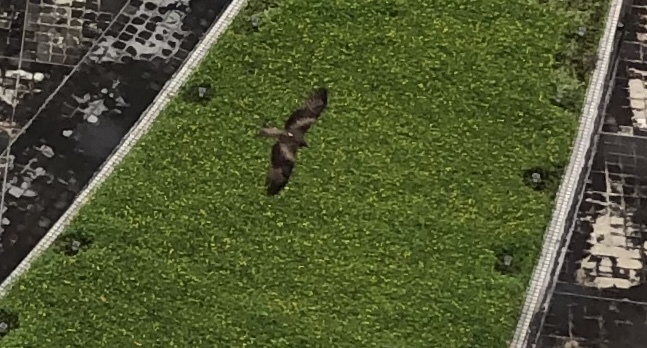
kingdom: Animalia
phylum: Chordata
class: Aves
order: Accipitriformes
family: Accipitridae
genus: Milvus
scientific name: Milvus migrans
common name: Black kite
